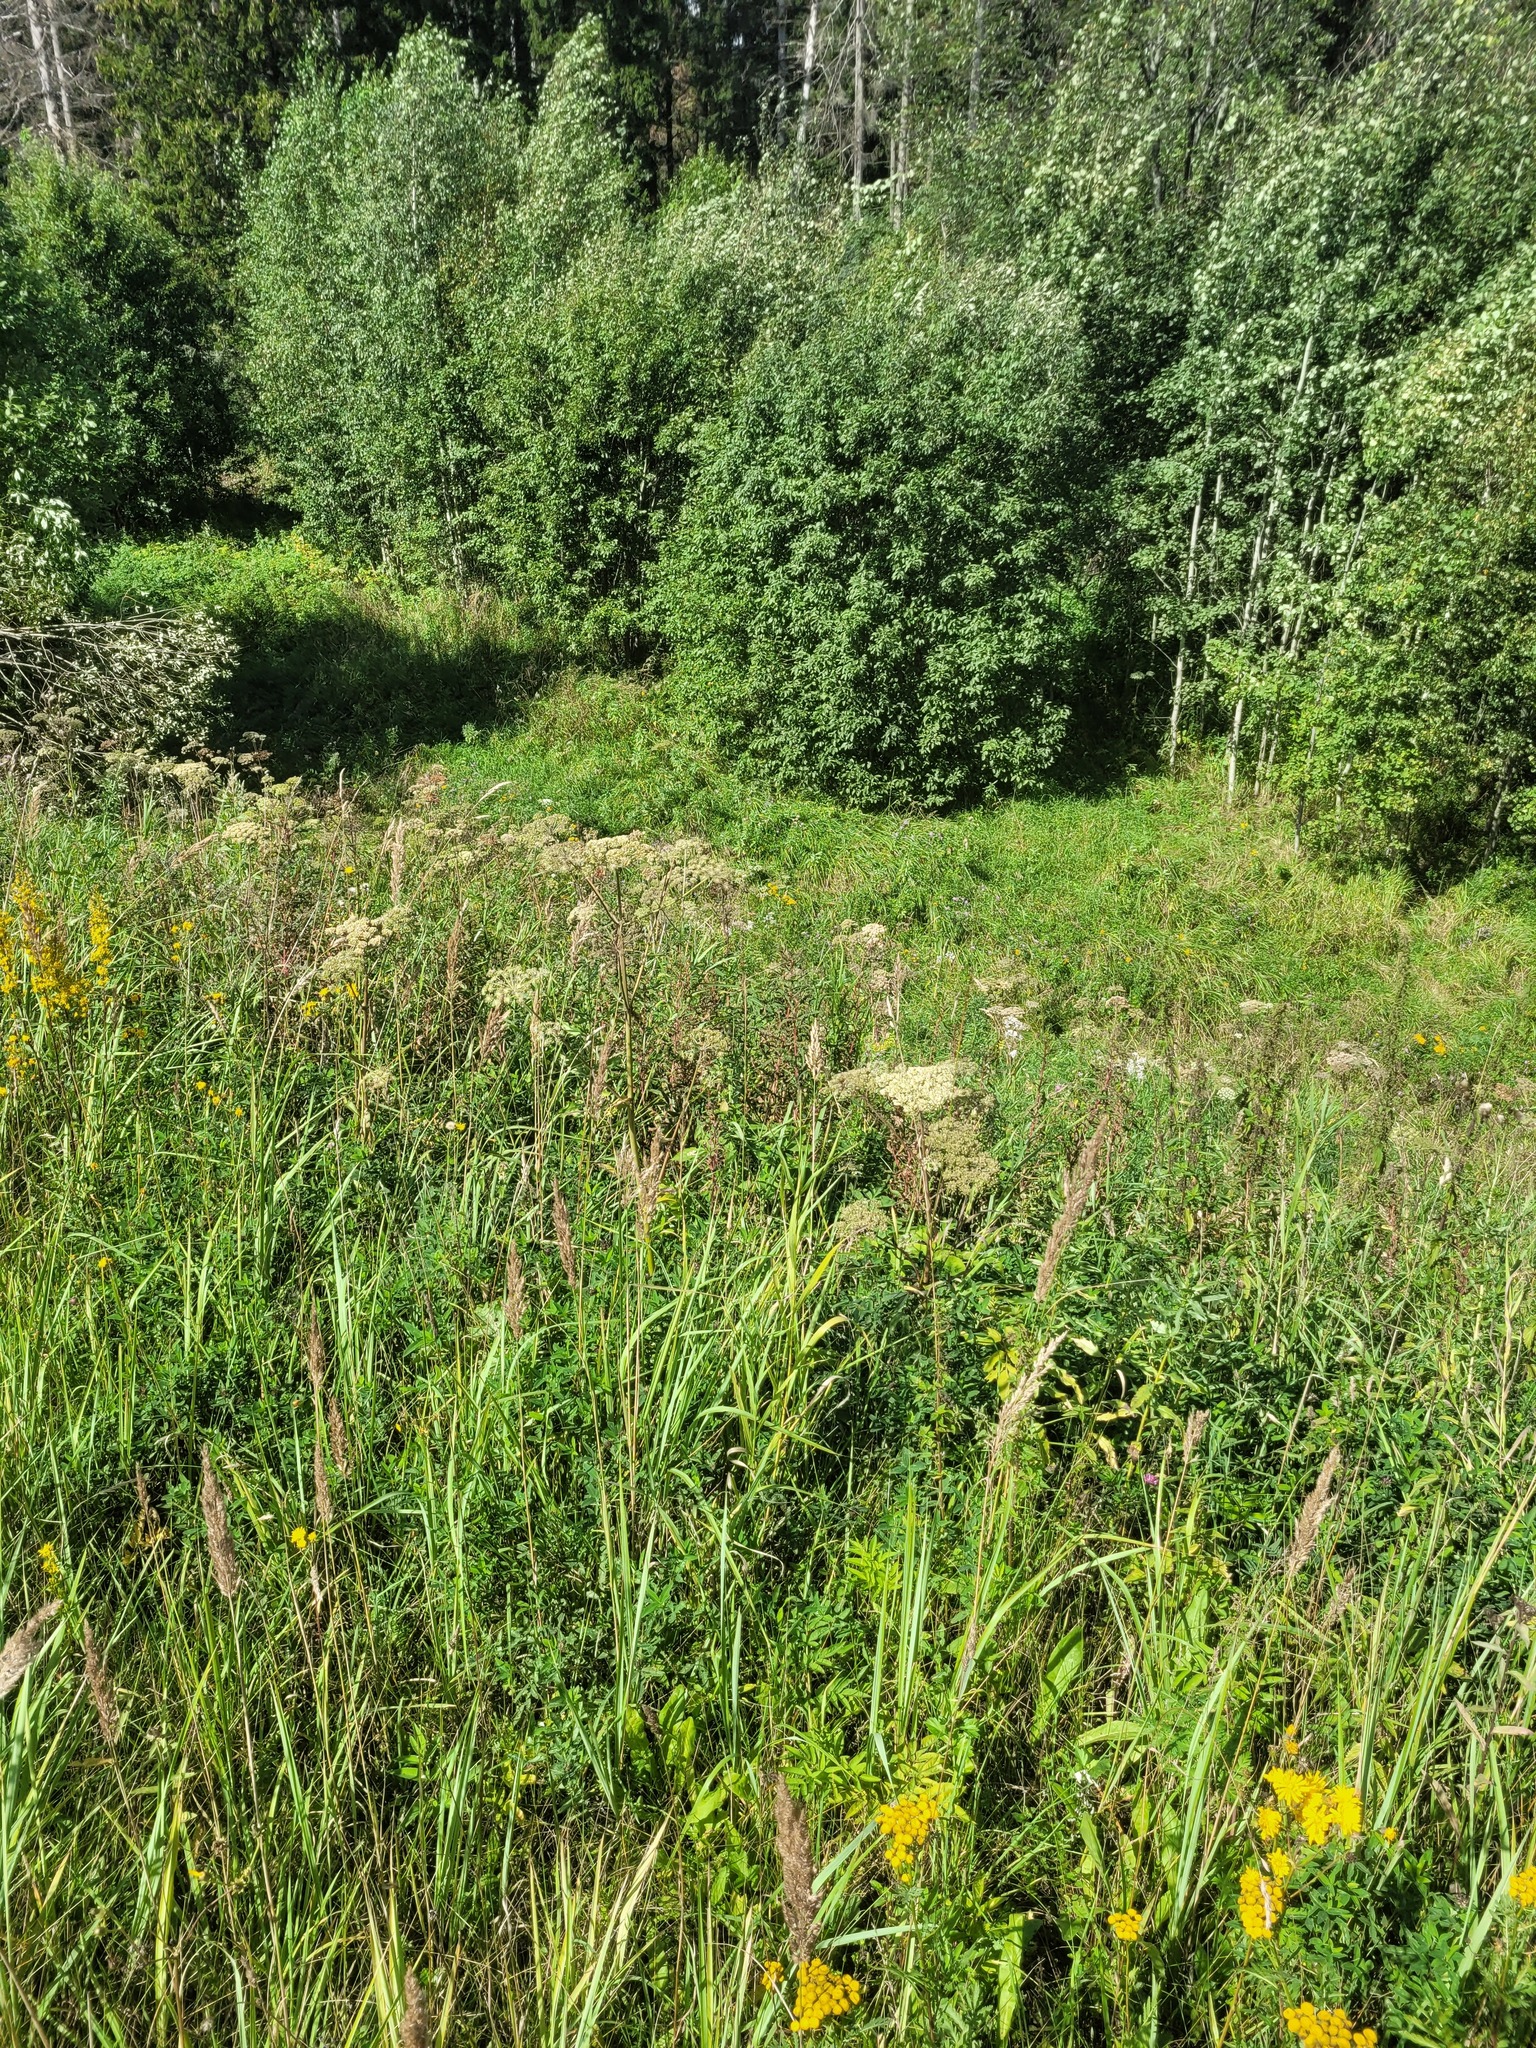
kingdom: Plantae
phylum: Tracheophyta
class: Magnoliopsida
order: Apiales
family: Apiaceae
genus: Angelica
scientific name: Angelica sylvestris
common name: Wild angelica
